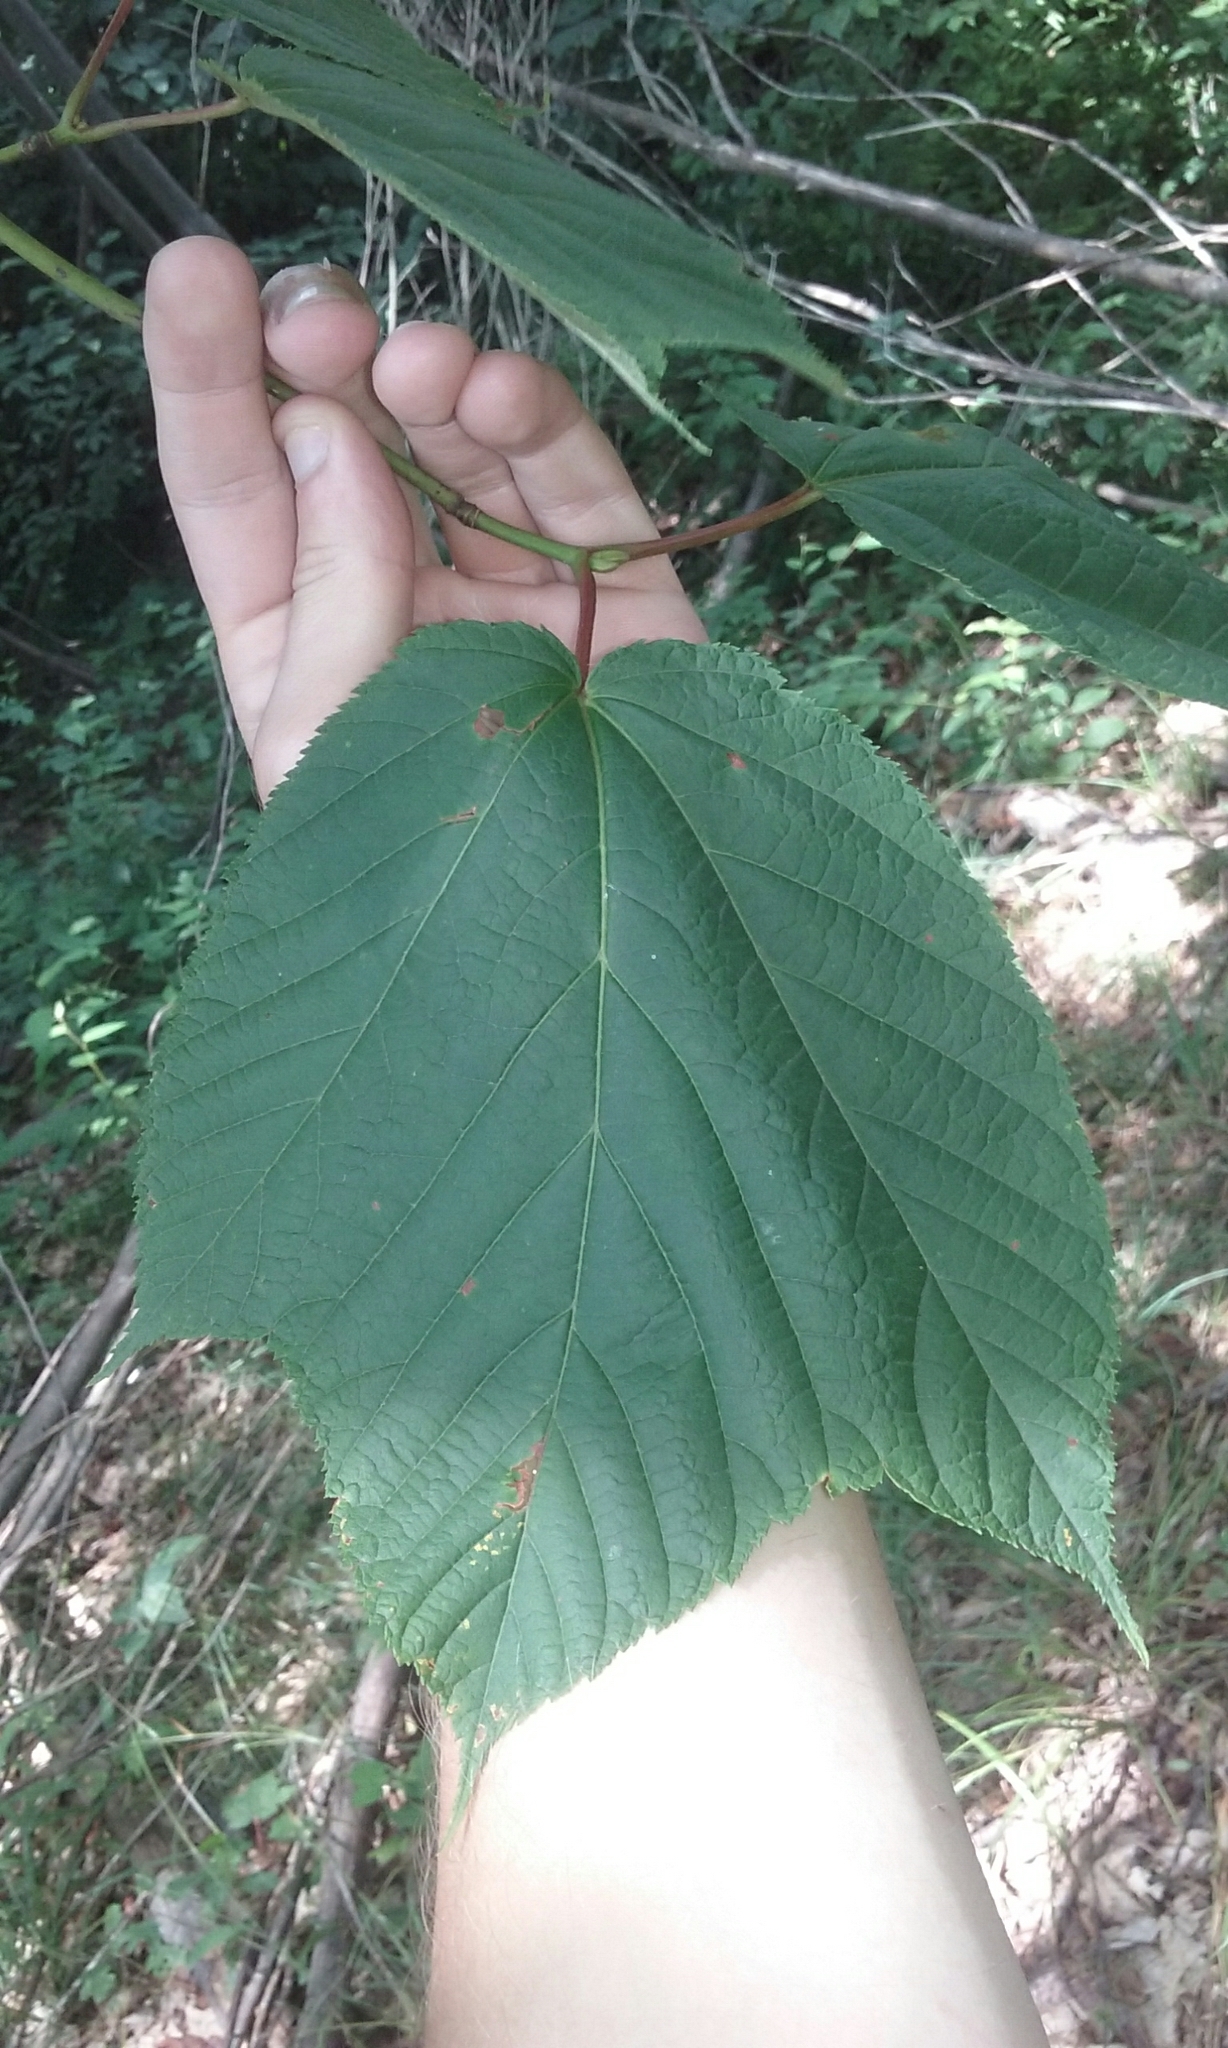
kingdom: Plantae
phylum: Tracheophyta
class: Magnoliopsida
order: Sapindales
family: Sapindaceae
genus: Acer
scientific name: Acer pensylvanicum
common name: Moosewood
